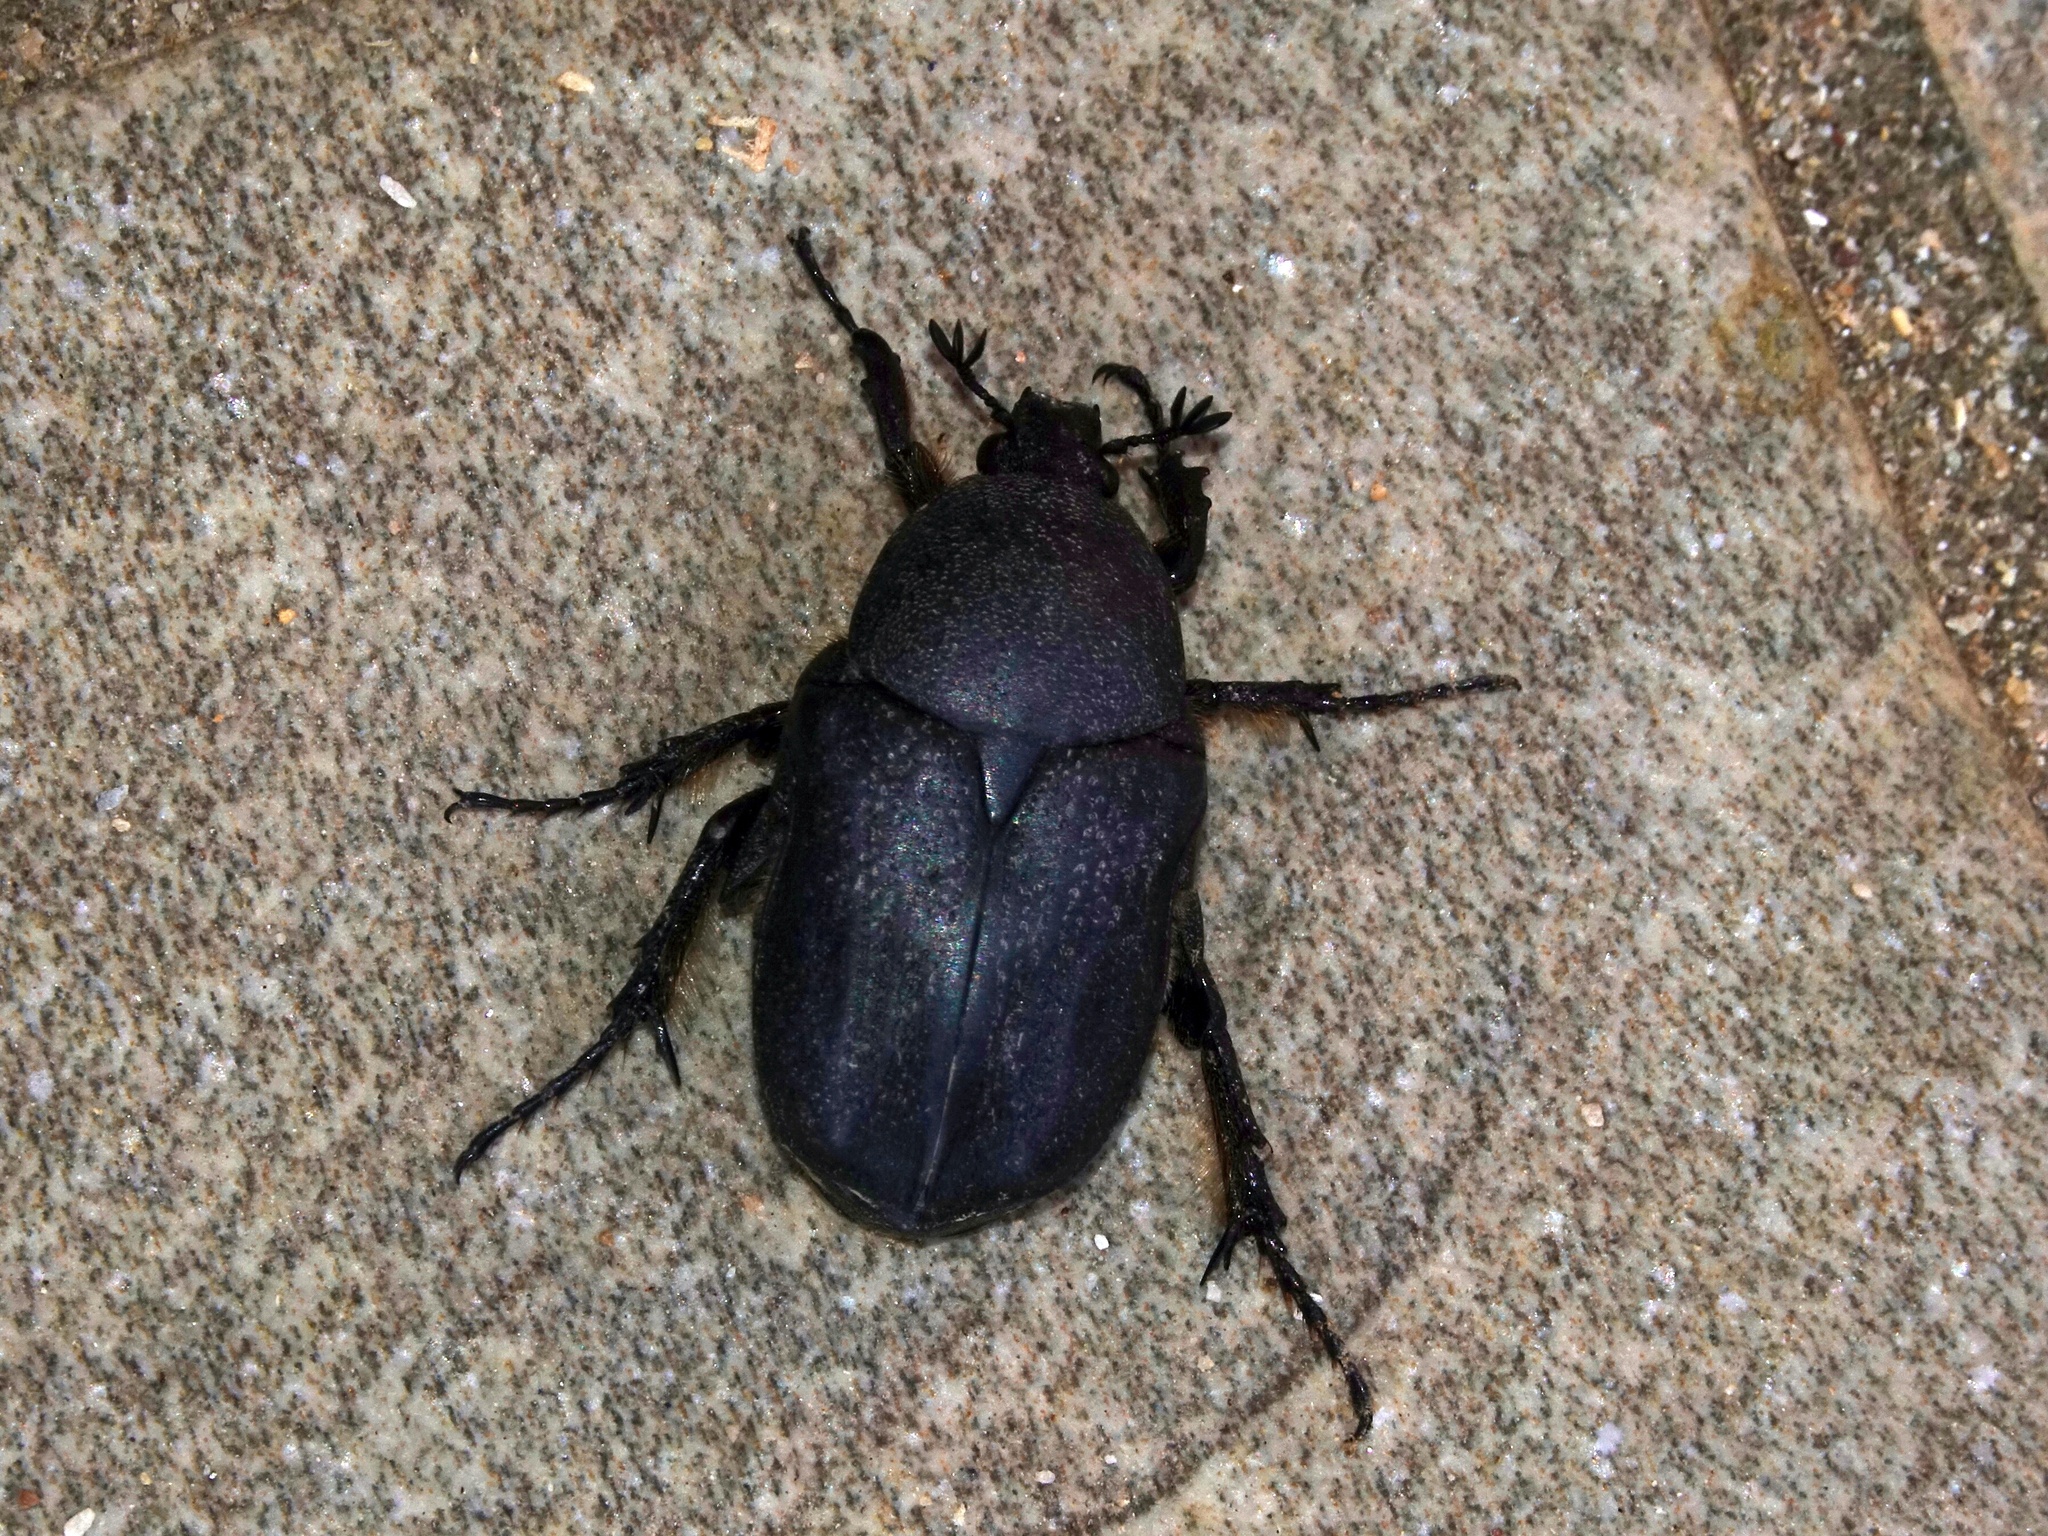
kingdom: Animalia
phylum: Arthropoda
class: Insecta
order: Coleoptera
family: Scarabaeidae
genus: Aethiessa
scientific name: Aethiessa floralis
